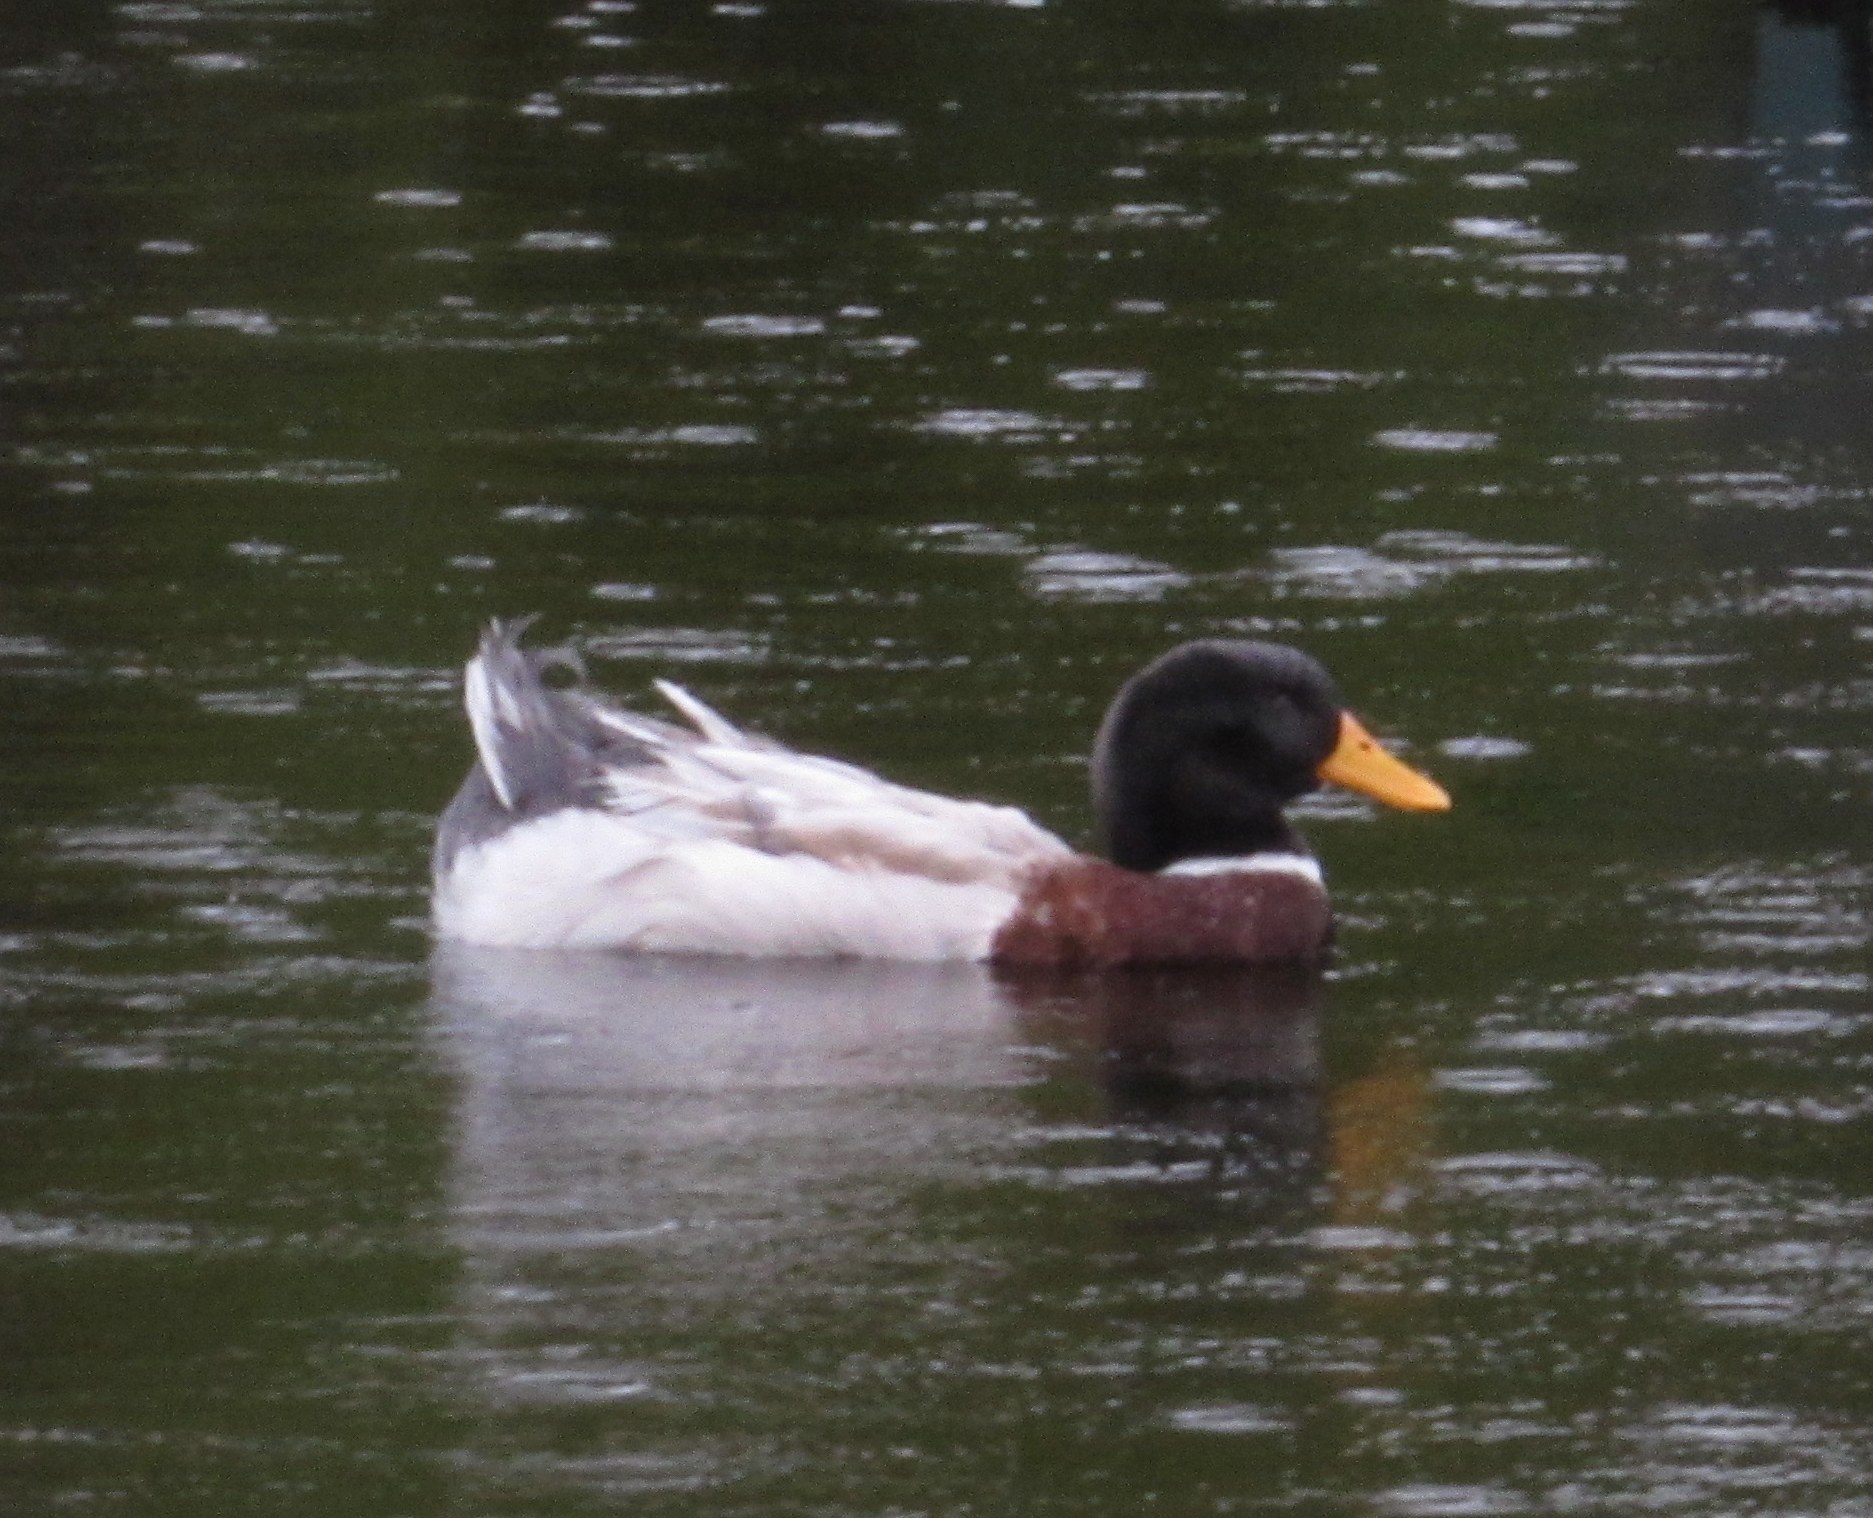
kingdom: Animalia
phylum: Chordata
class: Aves
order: Anseriformes
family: Anatidae
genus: Anas
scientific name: Anas platyrhynchos
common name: Mallard
